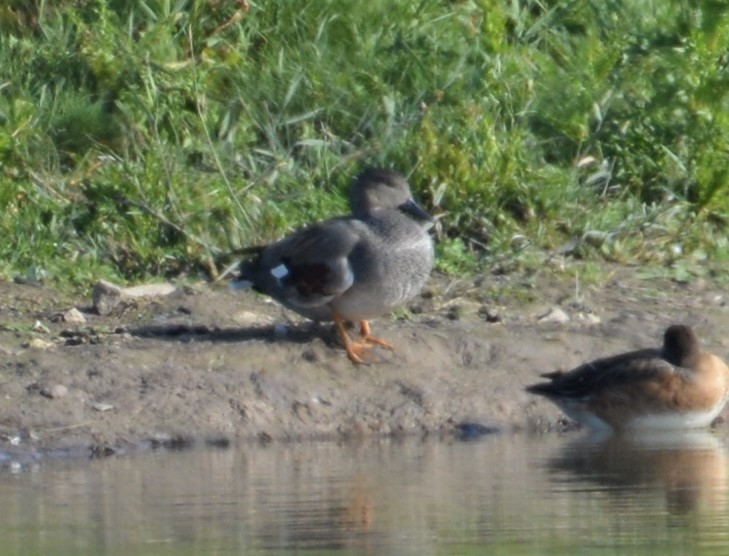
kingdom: Animalia
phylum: Chordata
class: Aves
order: Anseriformes
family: Anatidae
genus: Mareca
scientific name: Mareca strepera
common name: Gadwall
